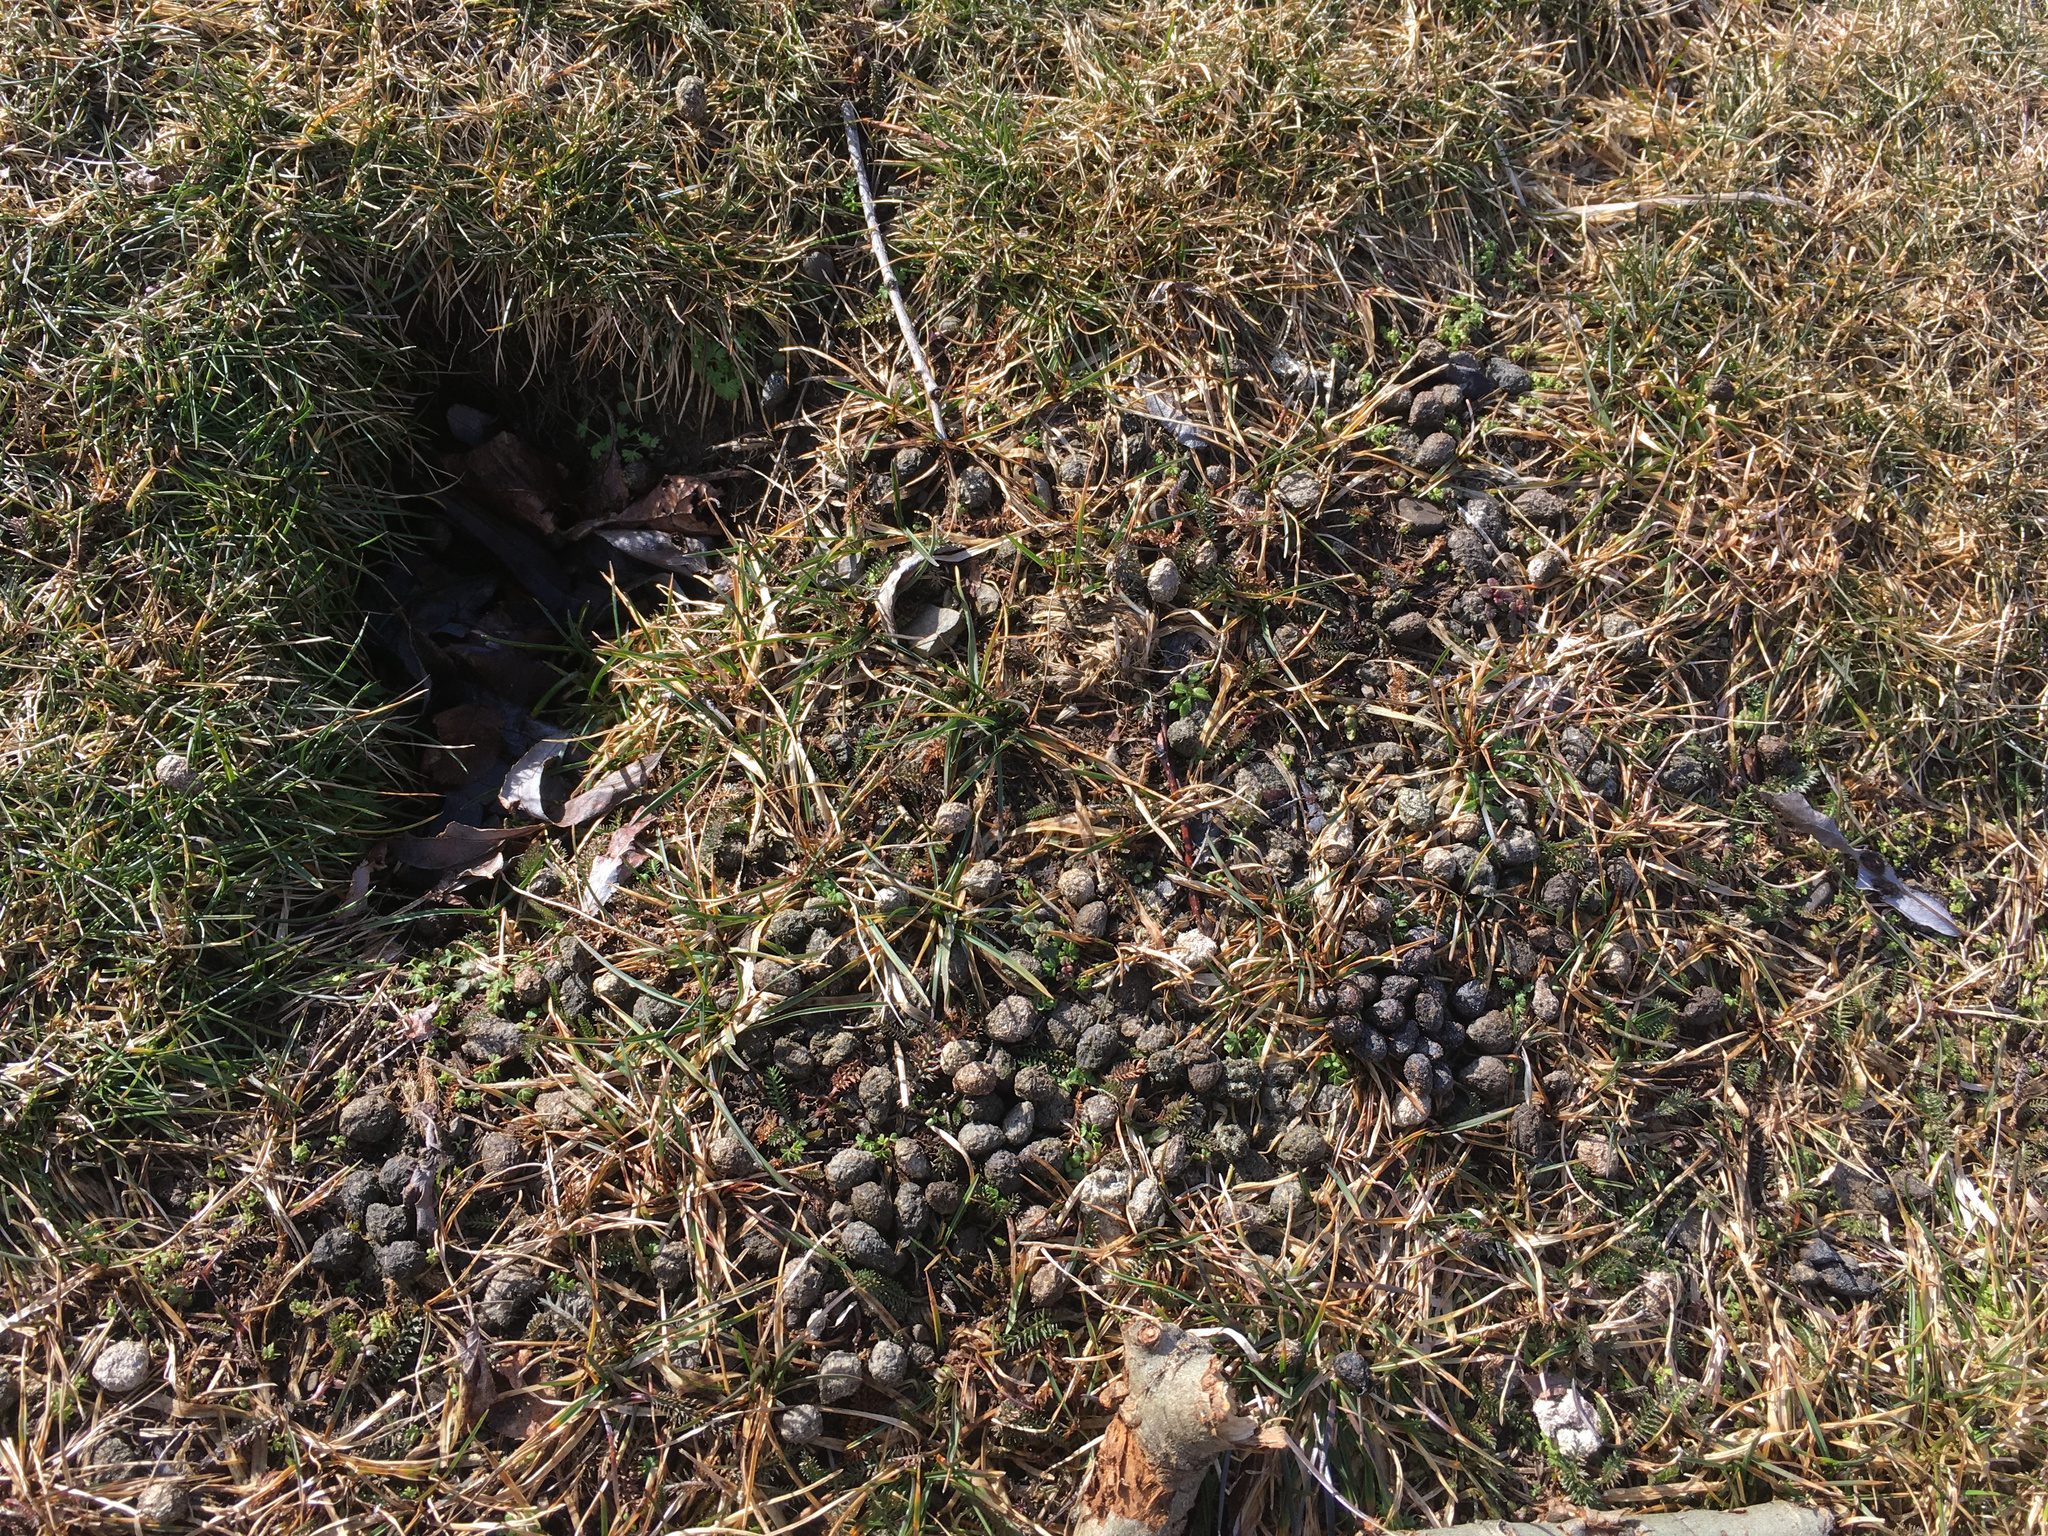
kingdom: Animalia
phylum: Chordata
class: Mammalia
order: Lagomorpha
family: Leporidae
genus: Oryctolagus
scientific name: Oryctolagus cuniculus
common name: European rabbit
